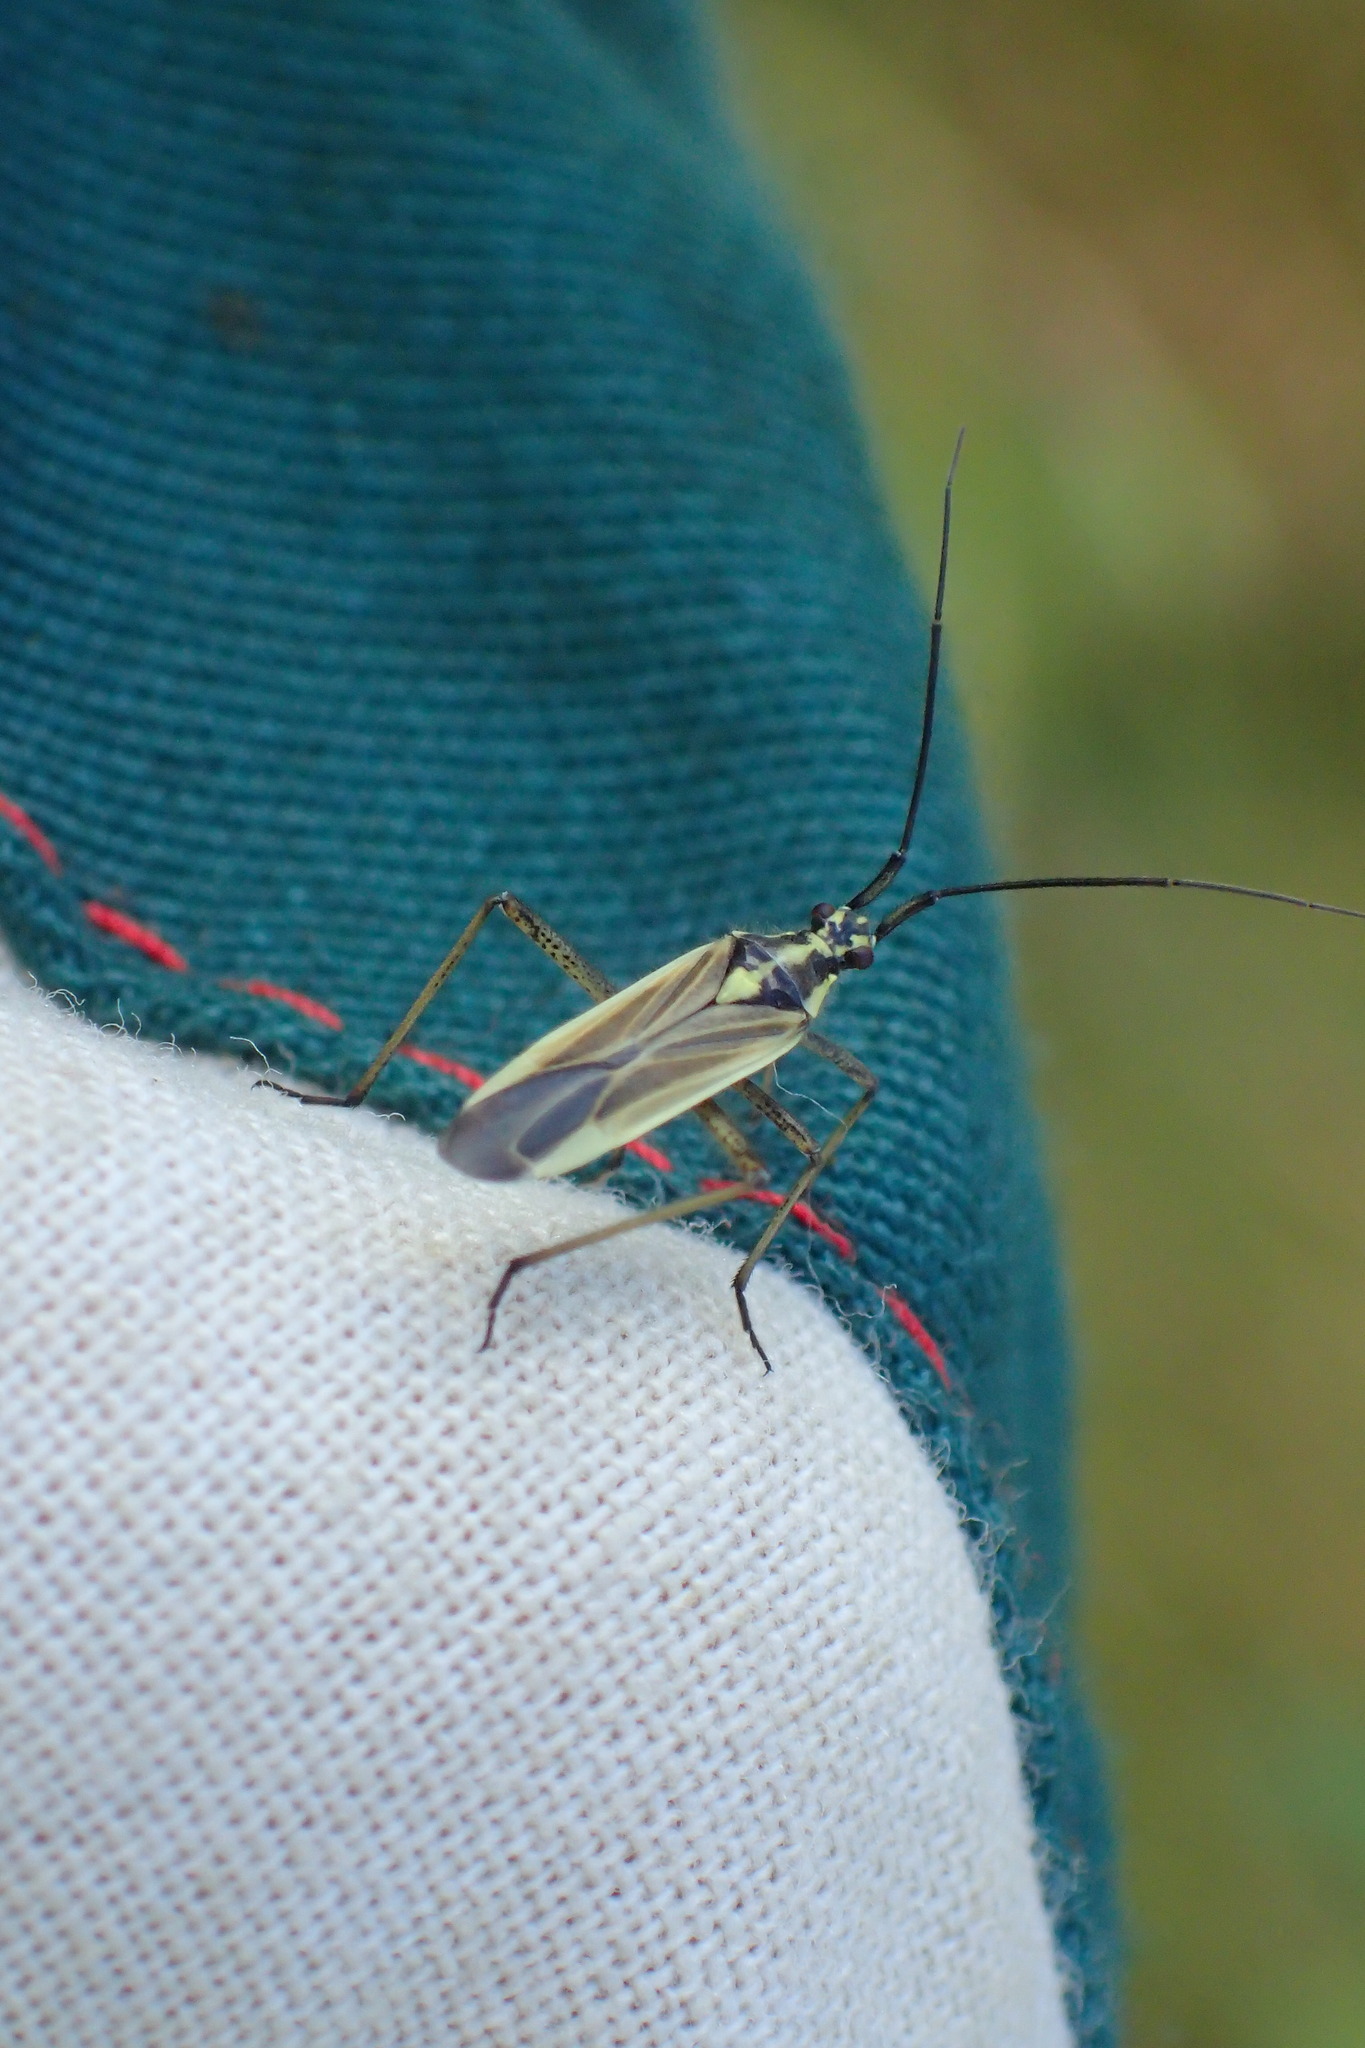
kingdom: Animalia
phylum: Arthropoda
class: Insecta
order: Hemiptera
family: Miridae
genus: Leptopterna
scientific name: Leptopterna dolabrata
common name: Meadow plant bug
